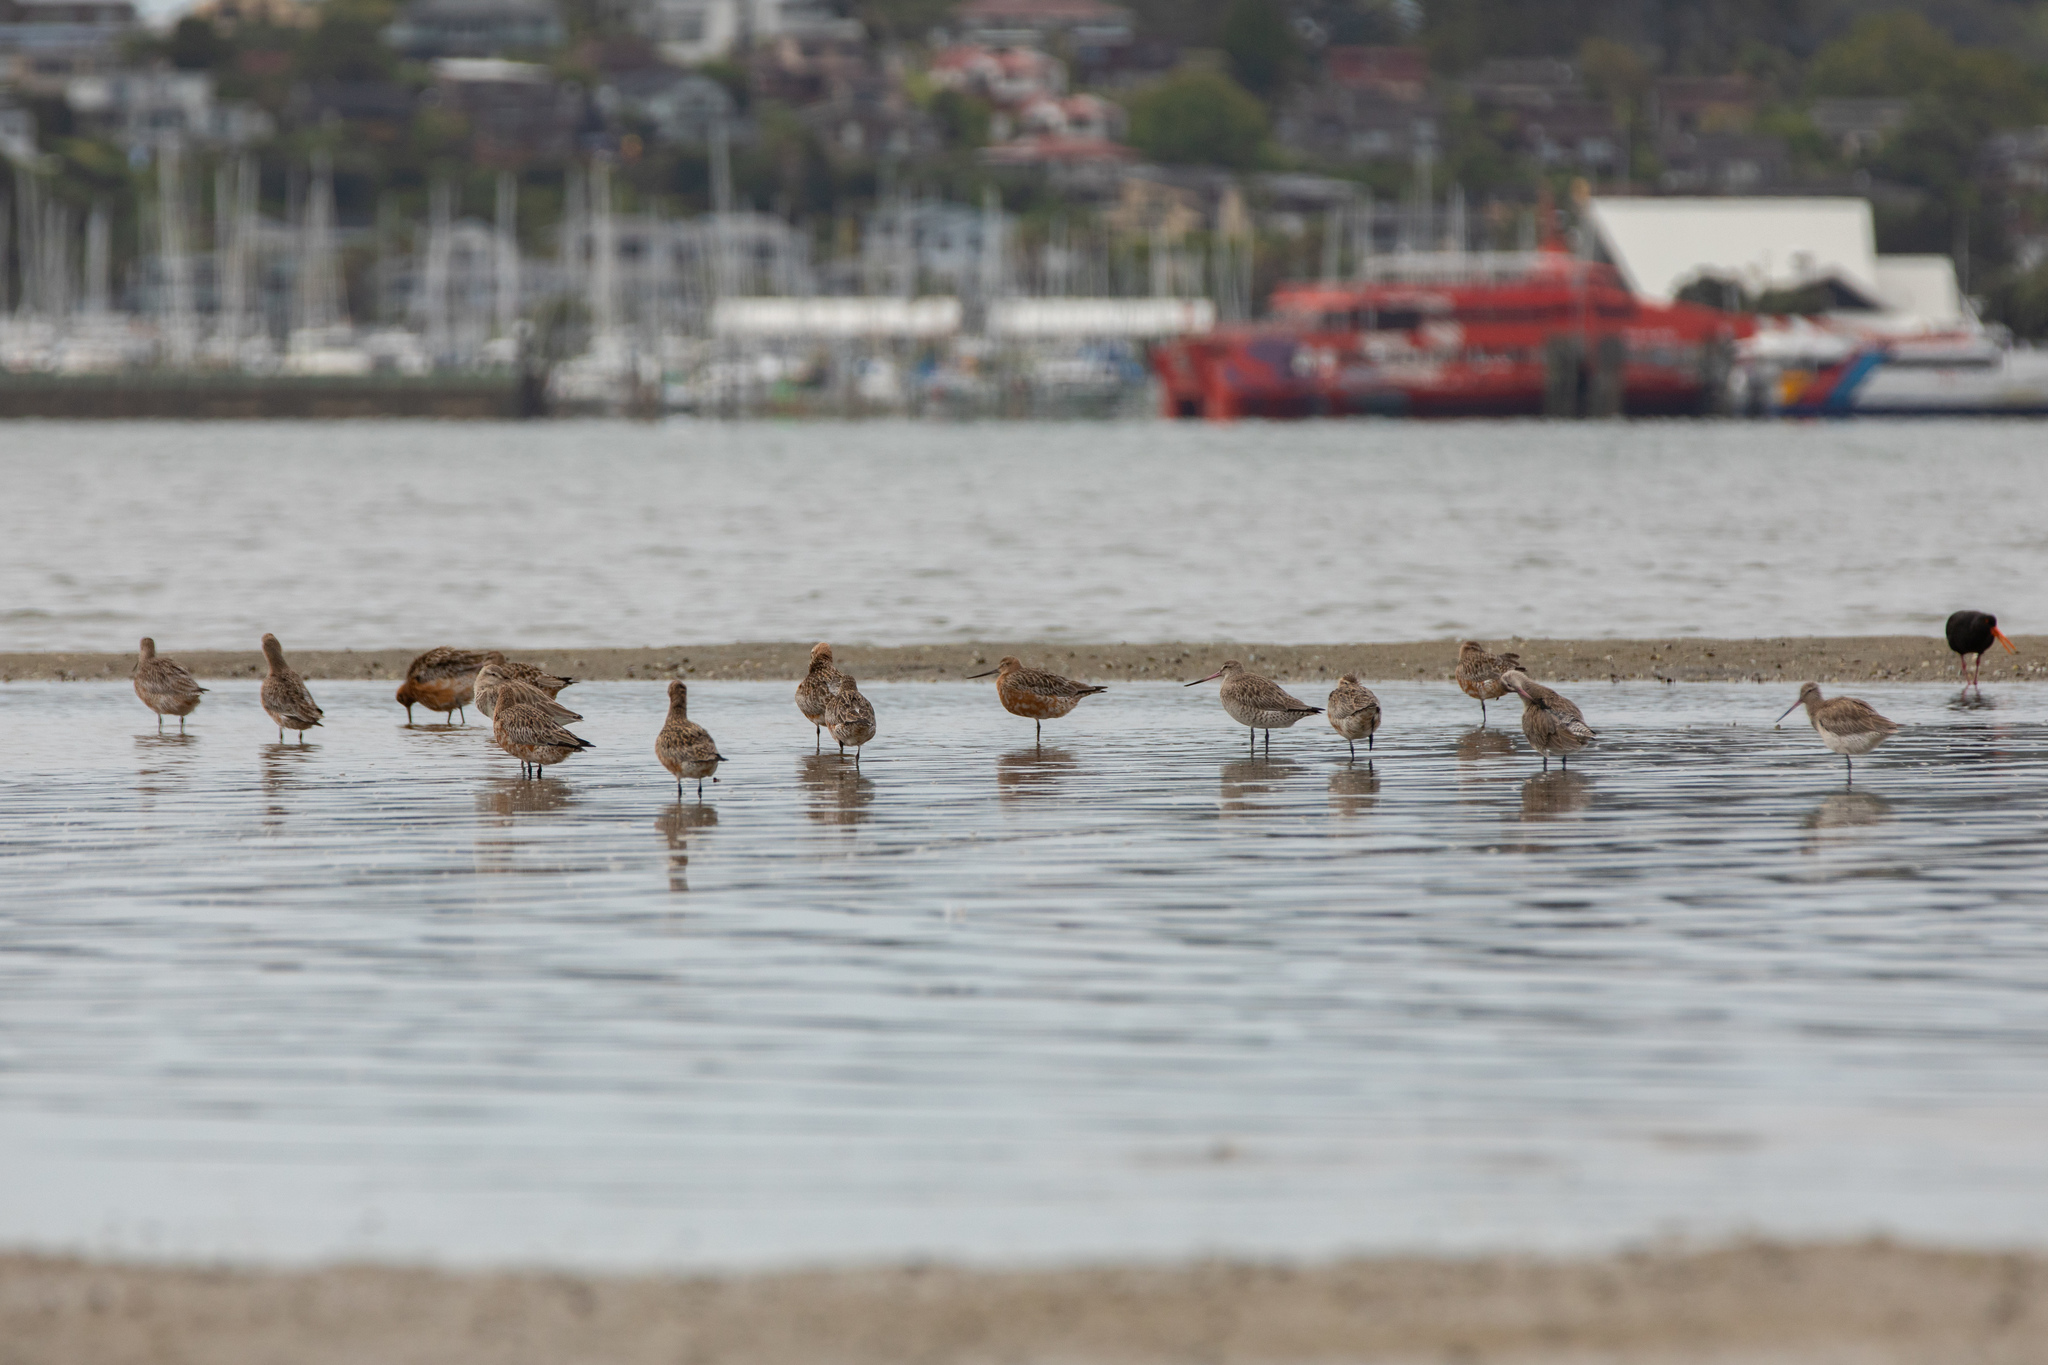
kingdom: Animalia
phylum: Chordata
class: Aves
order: Charadriiformes
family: Scolopacidae
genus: Limosa
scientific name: Limosa lapponica
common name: Bar-tailed godwit
